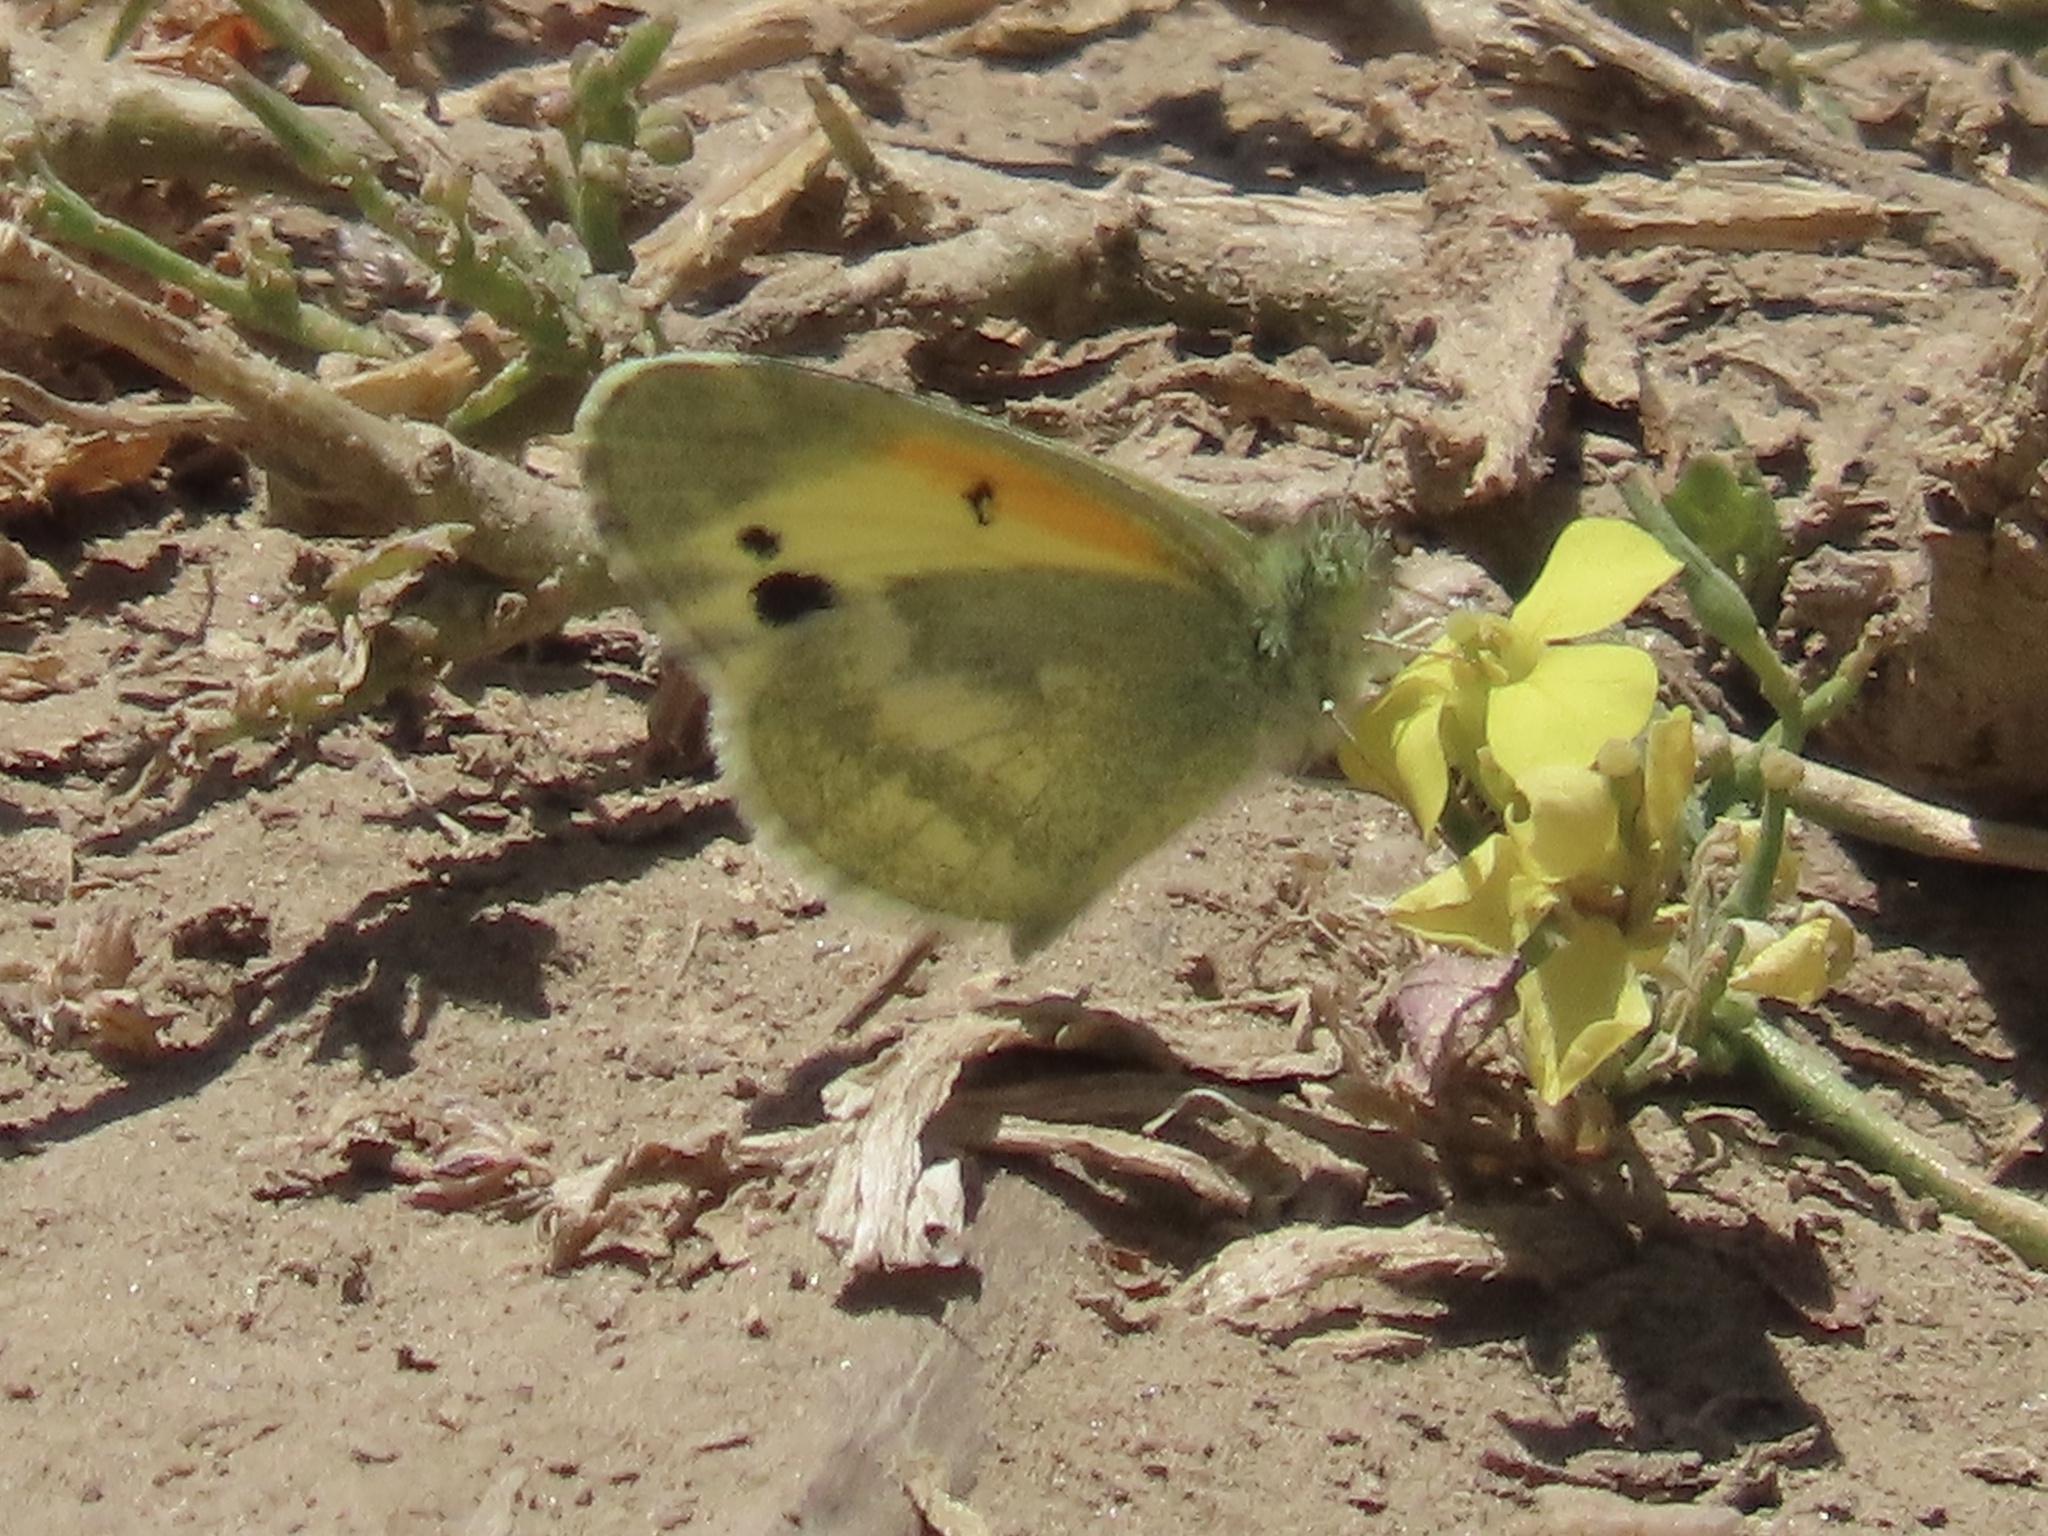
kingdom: Animalia
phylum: Arthropoda
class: Insecta
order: Lepidoptera
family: Pieridae
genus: Nathalis
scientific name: Nathalis iole
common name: Dainty sulphur
